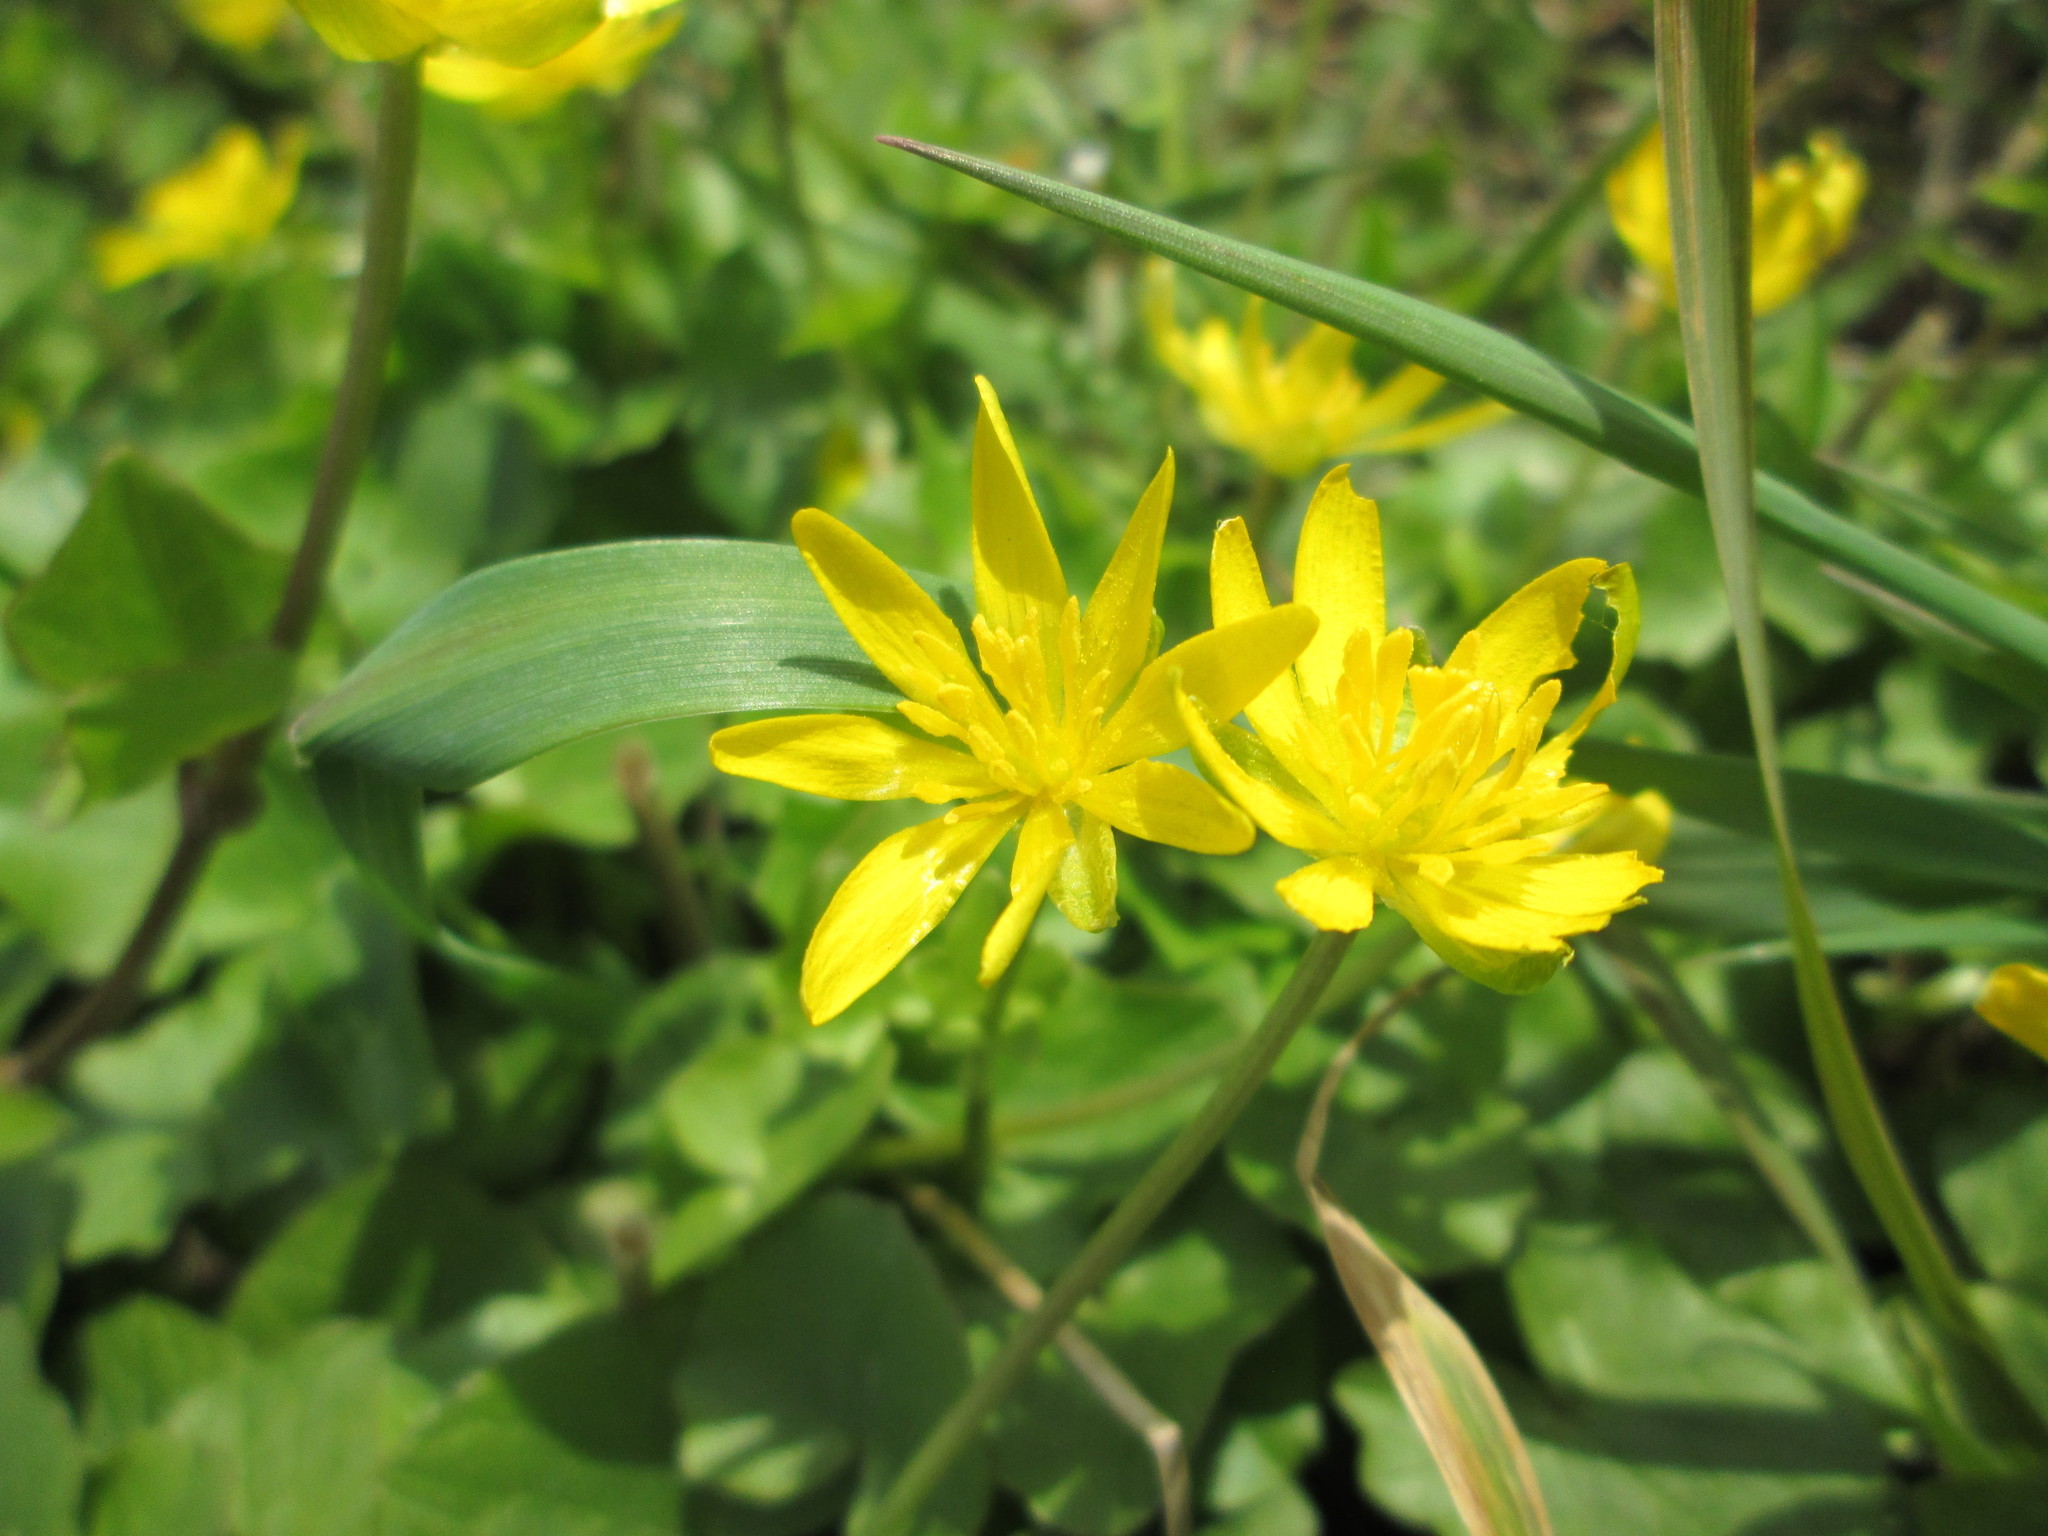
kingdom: Plantae
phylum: Tracheophyta
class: Magnoliopsida
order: Ranunculales
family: Ranunculaceae
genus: Ficaria
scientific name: Ficaria verna
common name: Lesser celandine
